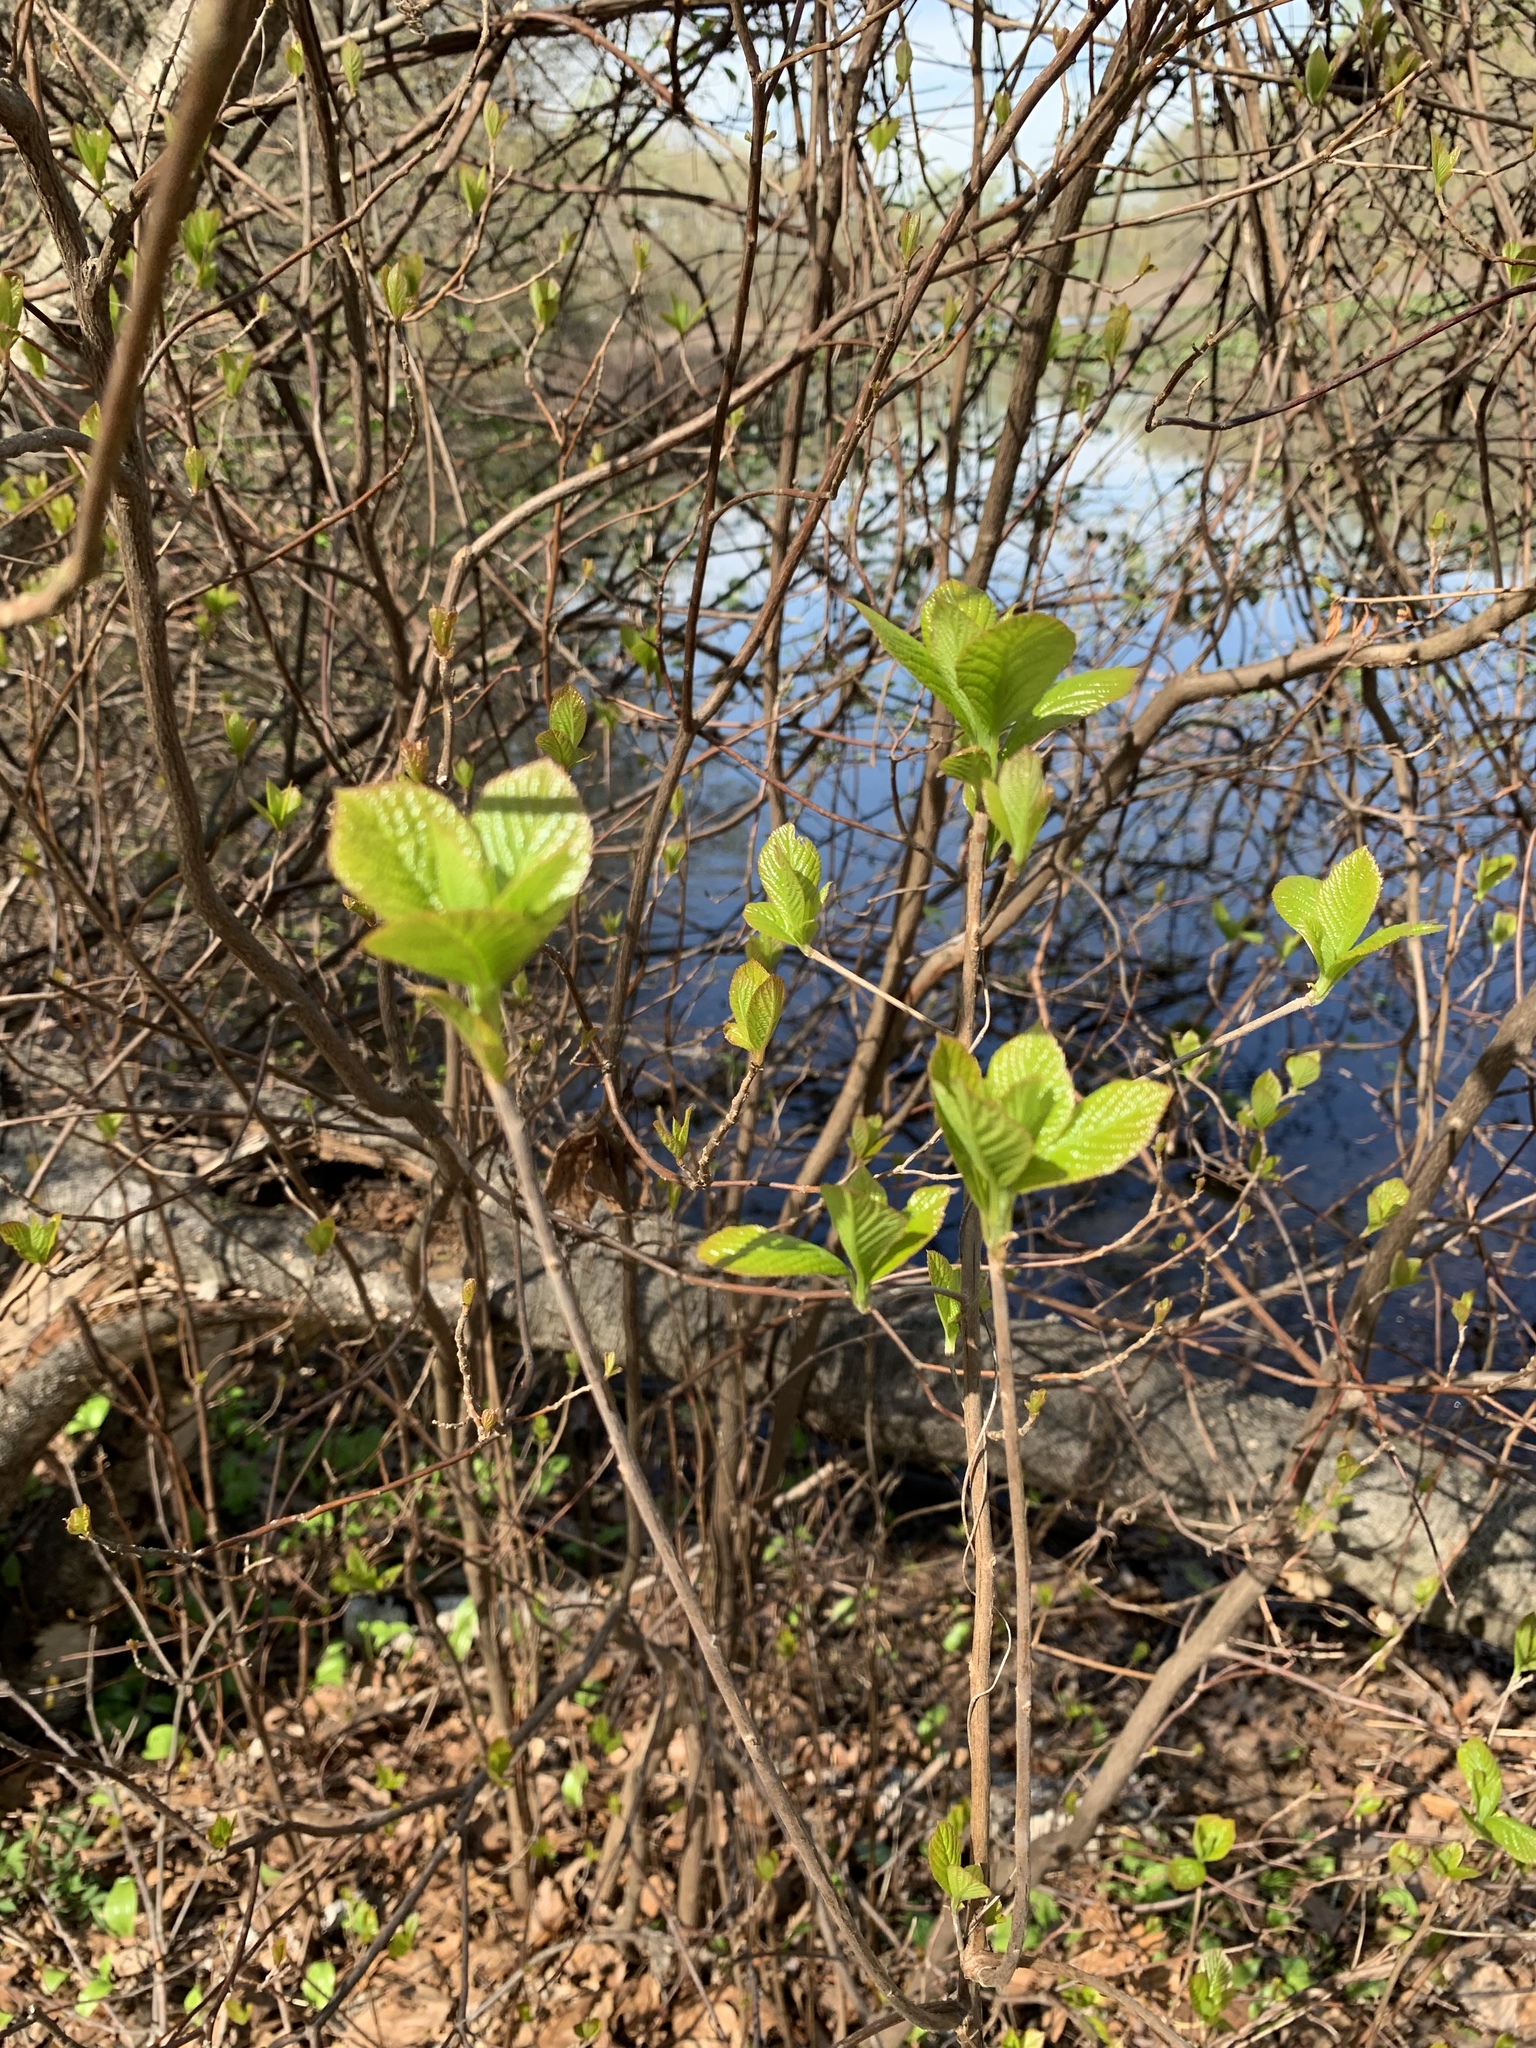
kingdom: Plantae
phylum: Tracheophyta
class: Magnoliopsida
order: Ericales
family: Clethraceae
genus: Clethra
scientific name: Clethra alnifolia
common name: Sweet pepperbush
